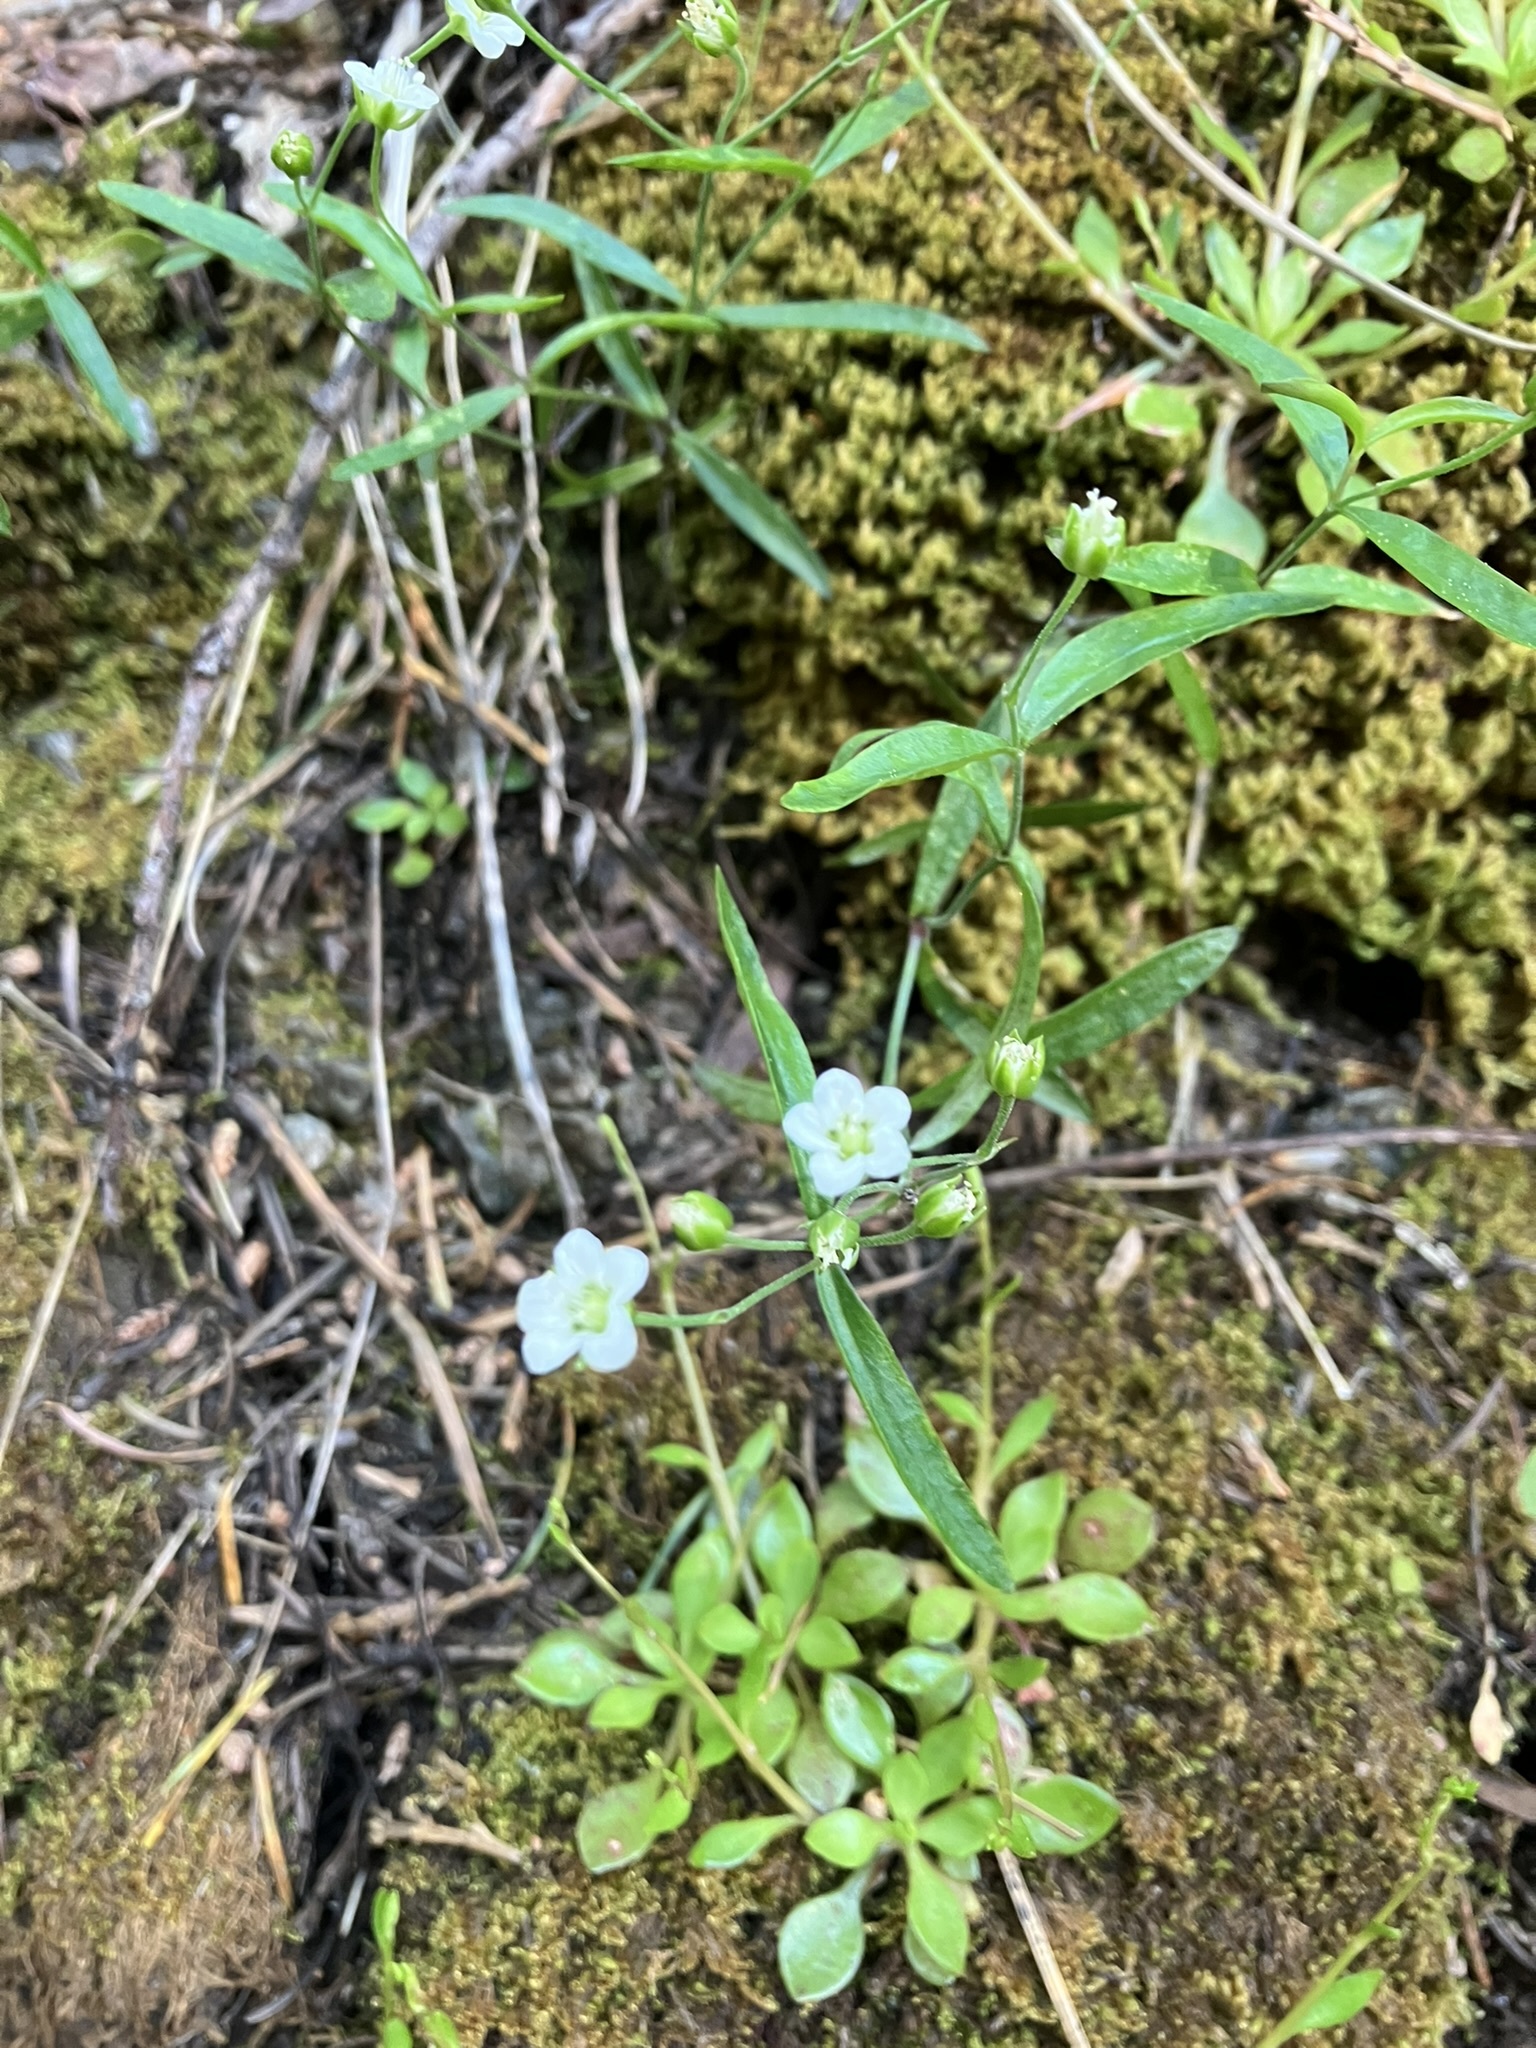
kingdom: Plantae
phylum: Tracheophyta
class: Magnoliopsida
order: Caryophyllales
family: Caryophyllaceae
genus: Moehringia
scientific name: Moehringia macrophylla
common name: Big-leaf sandwort
